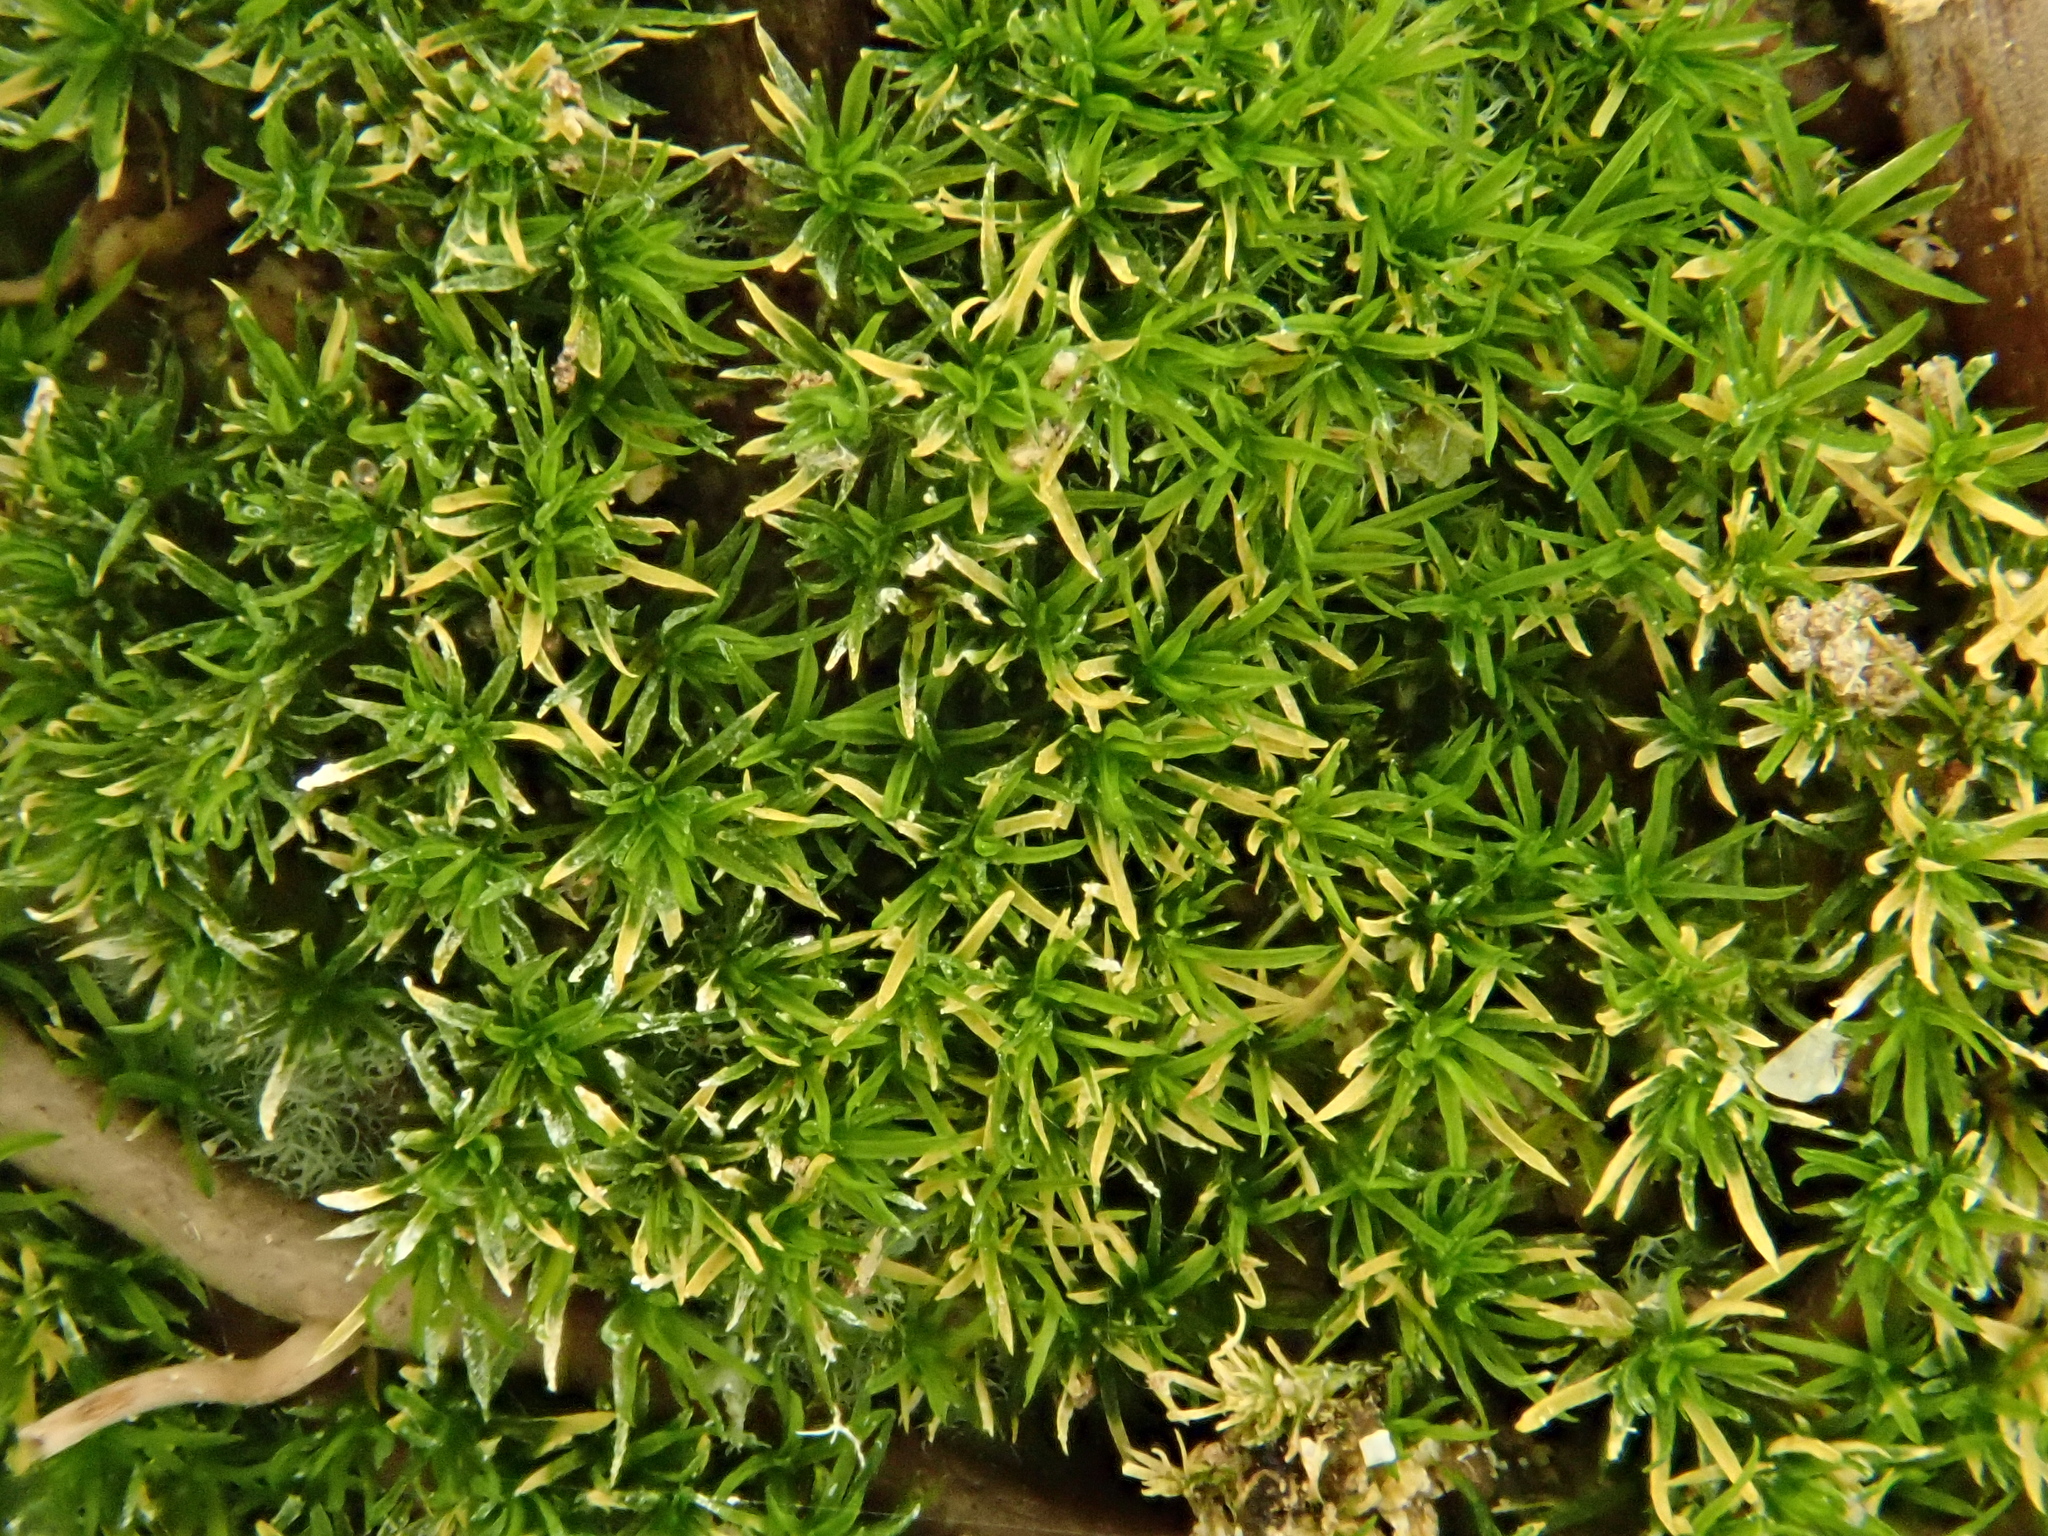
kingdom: Plantae
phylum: Bryophyta
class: Bryopsida
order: Pottiales
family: Pottiaceae
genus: Eucladium
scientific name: Eucladium verticillatum
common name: Whorled tufa-moss
